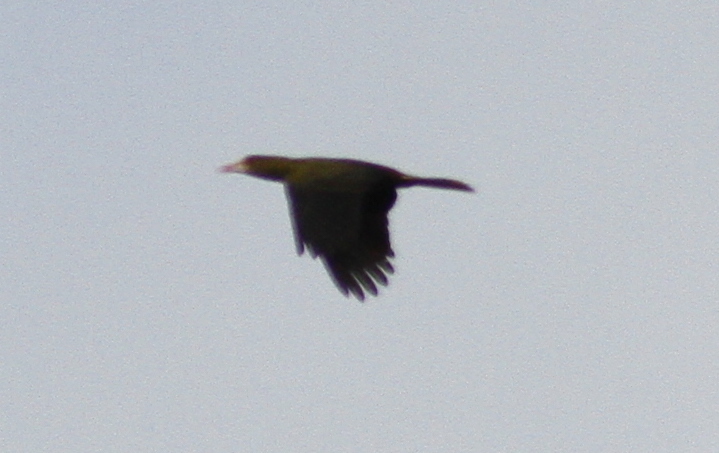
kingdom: Animalia
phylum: Chordata
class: Aves
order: Passeriformes
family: Icteridae
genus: Psarocolius
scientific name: Psarocolius viridis
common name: Green oropendola
